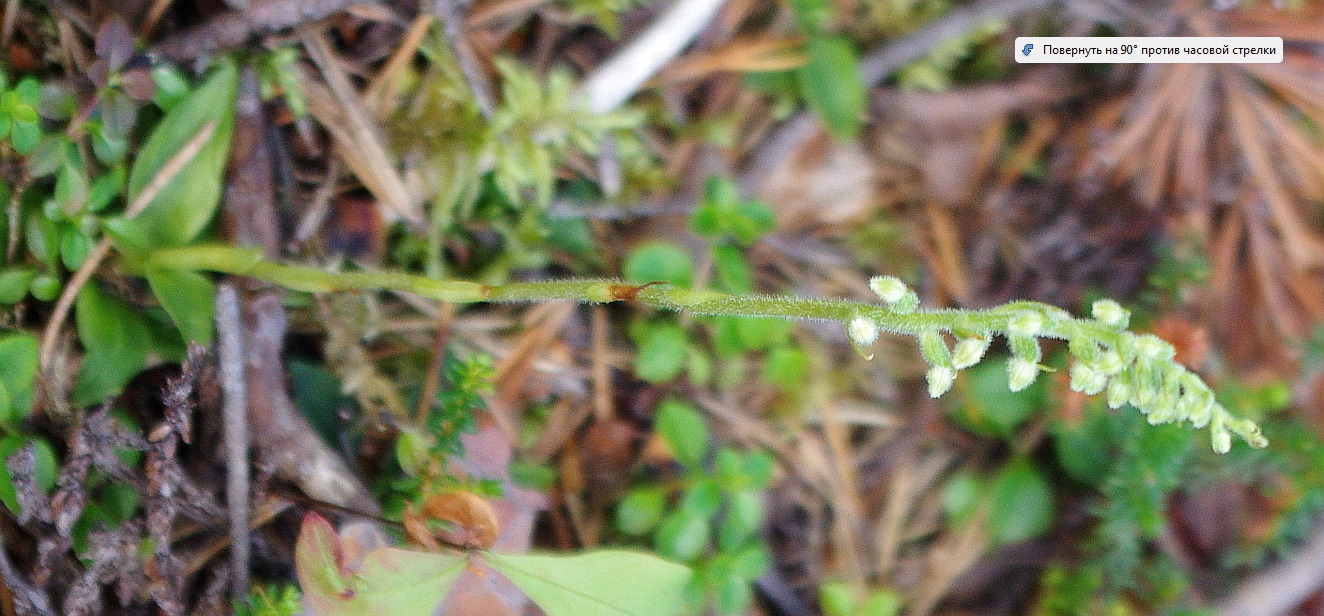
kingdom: Plantae
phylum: Tracheophyta
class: Liliopsida
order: Asparagales
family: Orchidaceae
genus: Goodyera
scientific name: Goodyera repens
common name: Creeping lady's-tresses
